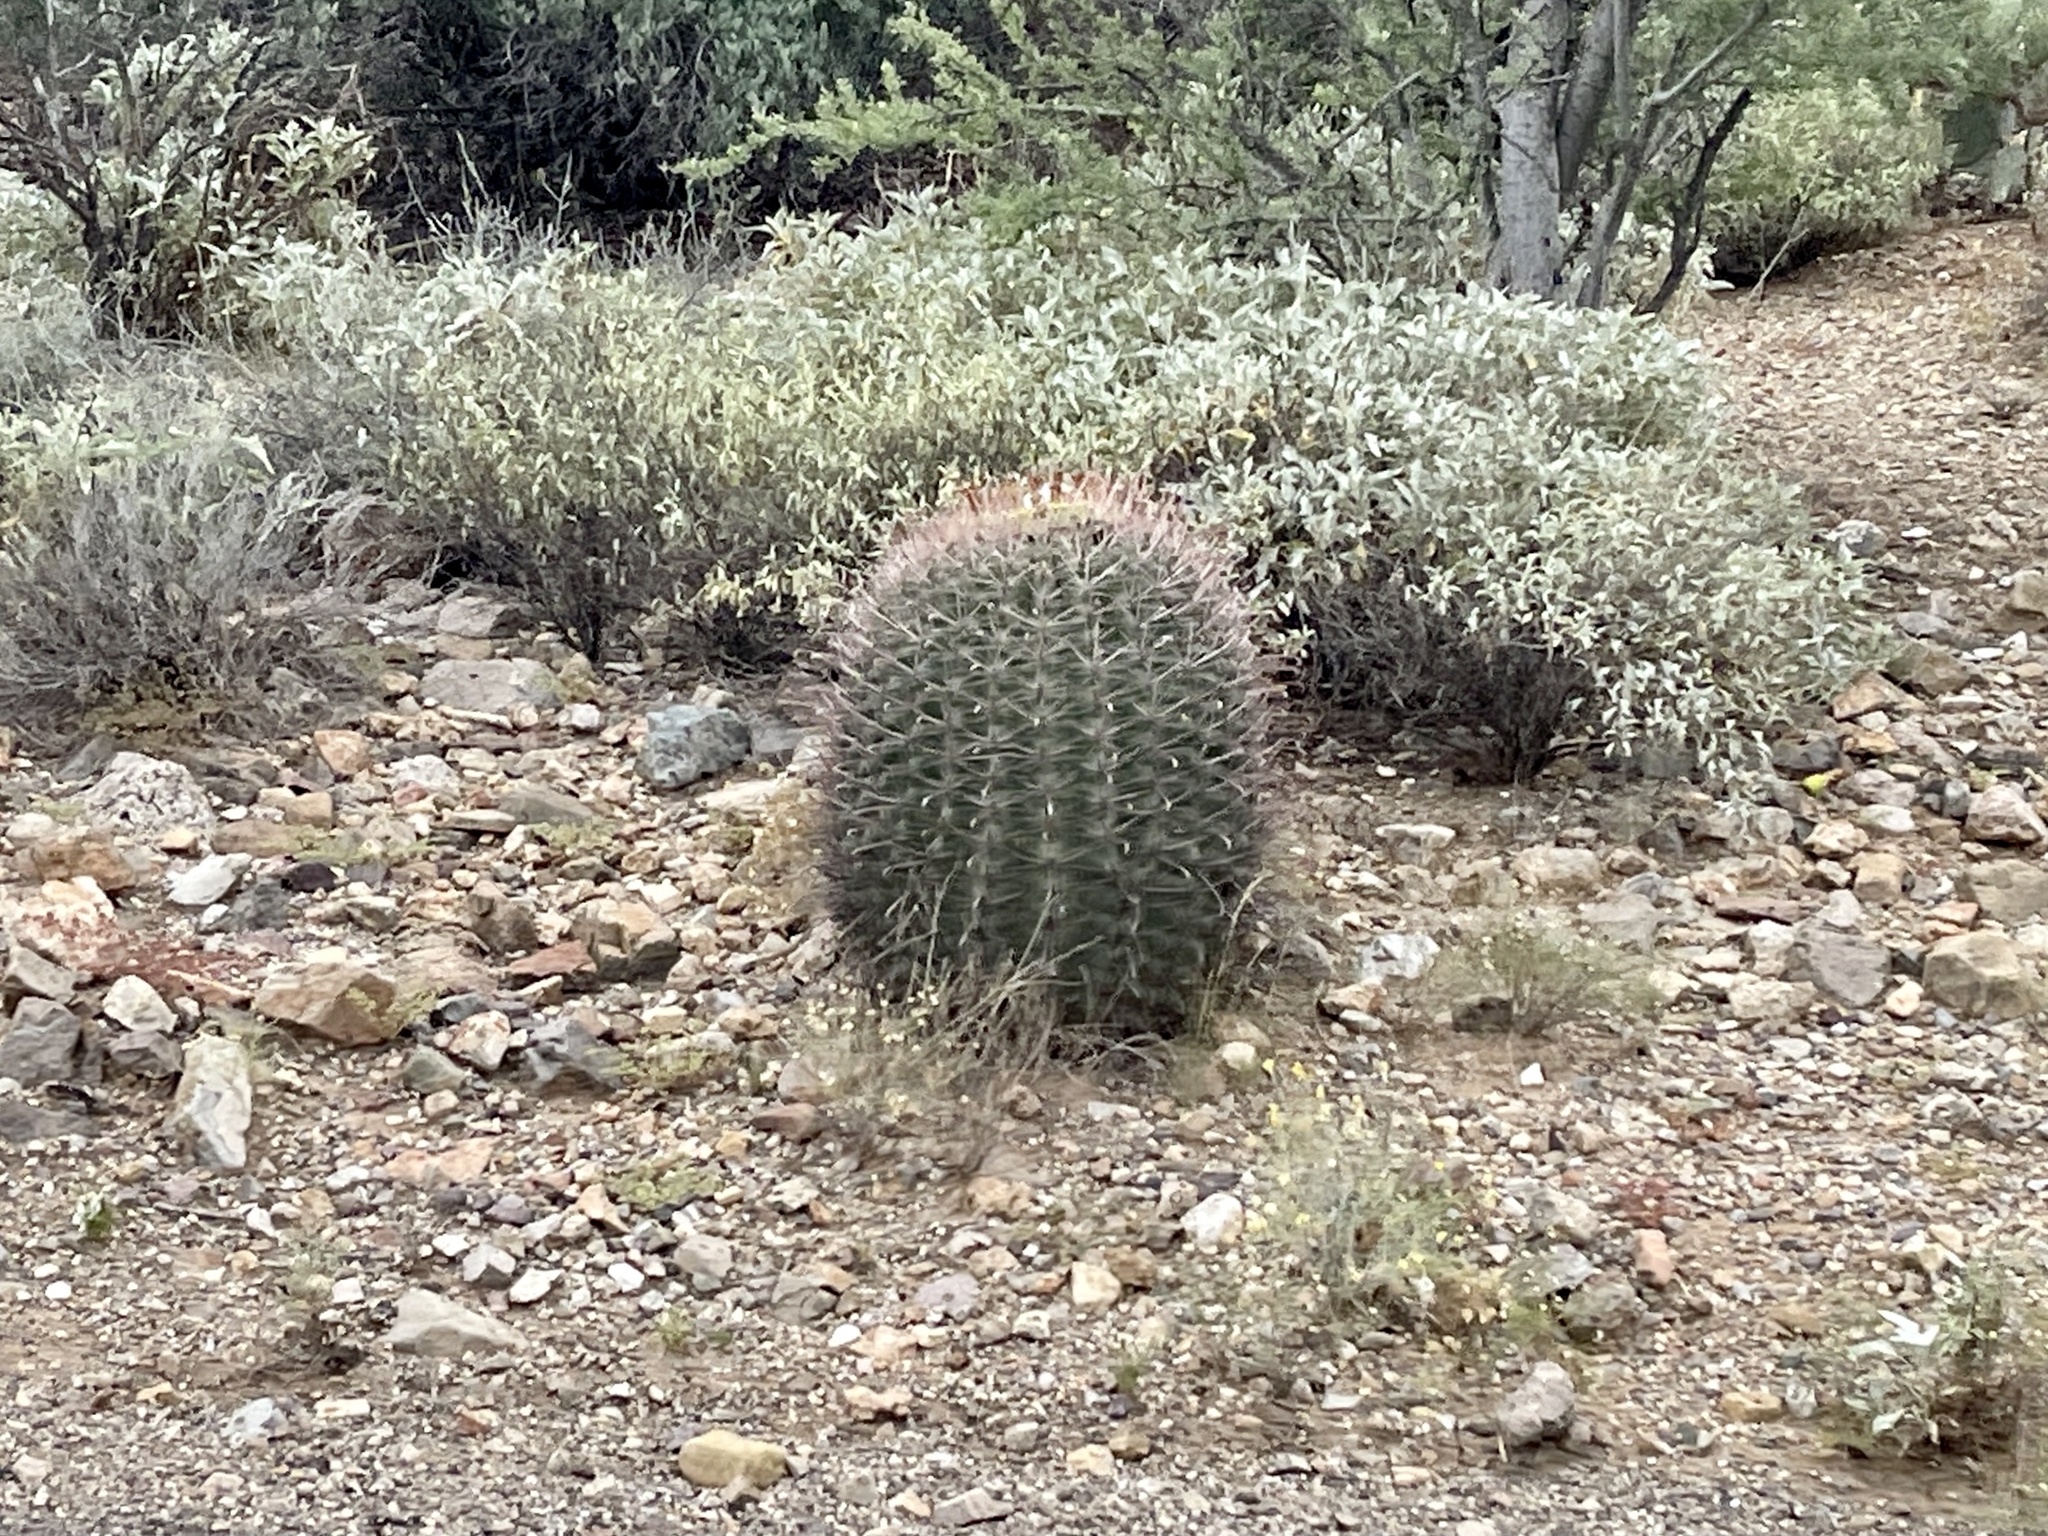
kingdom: Plantae
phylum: Tracheophyta
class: Magnoliopsida
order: Caryophyllales
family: Cactaceae
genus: Ferocactus
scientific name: Ferocactus wislizeni
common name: Candy barrel cactus
